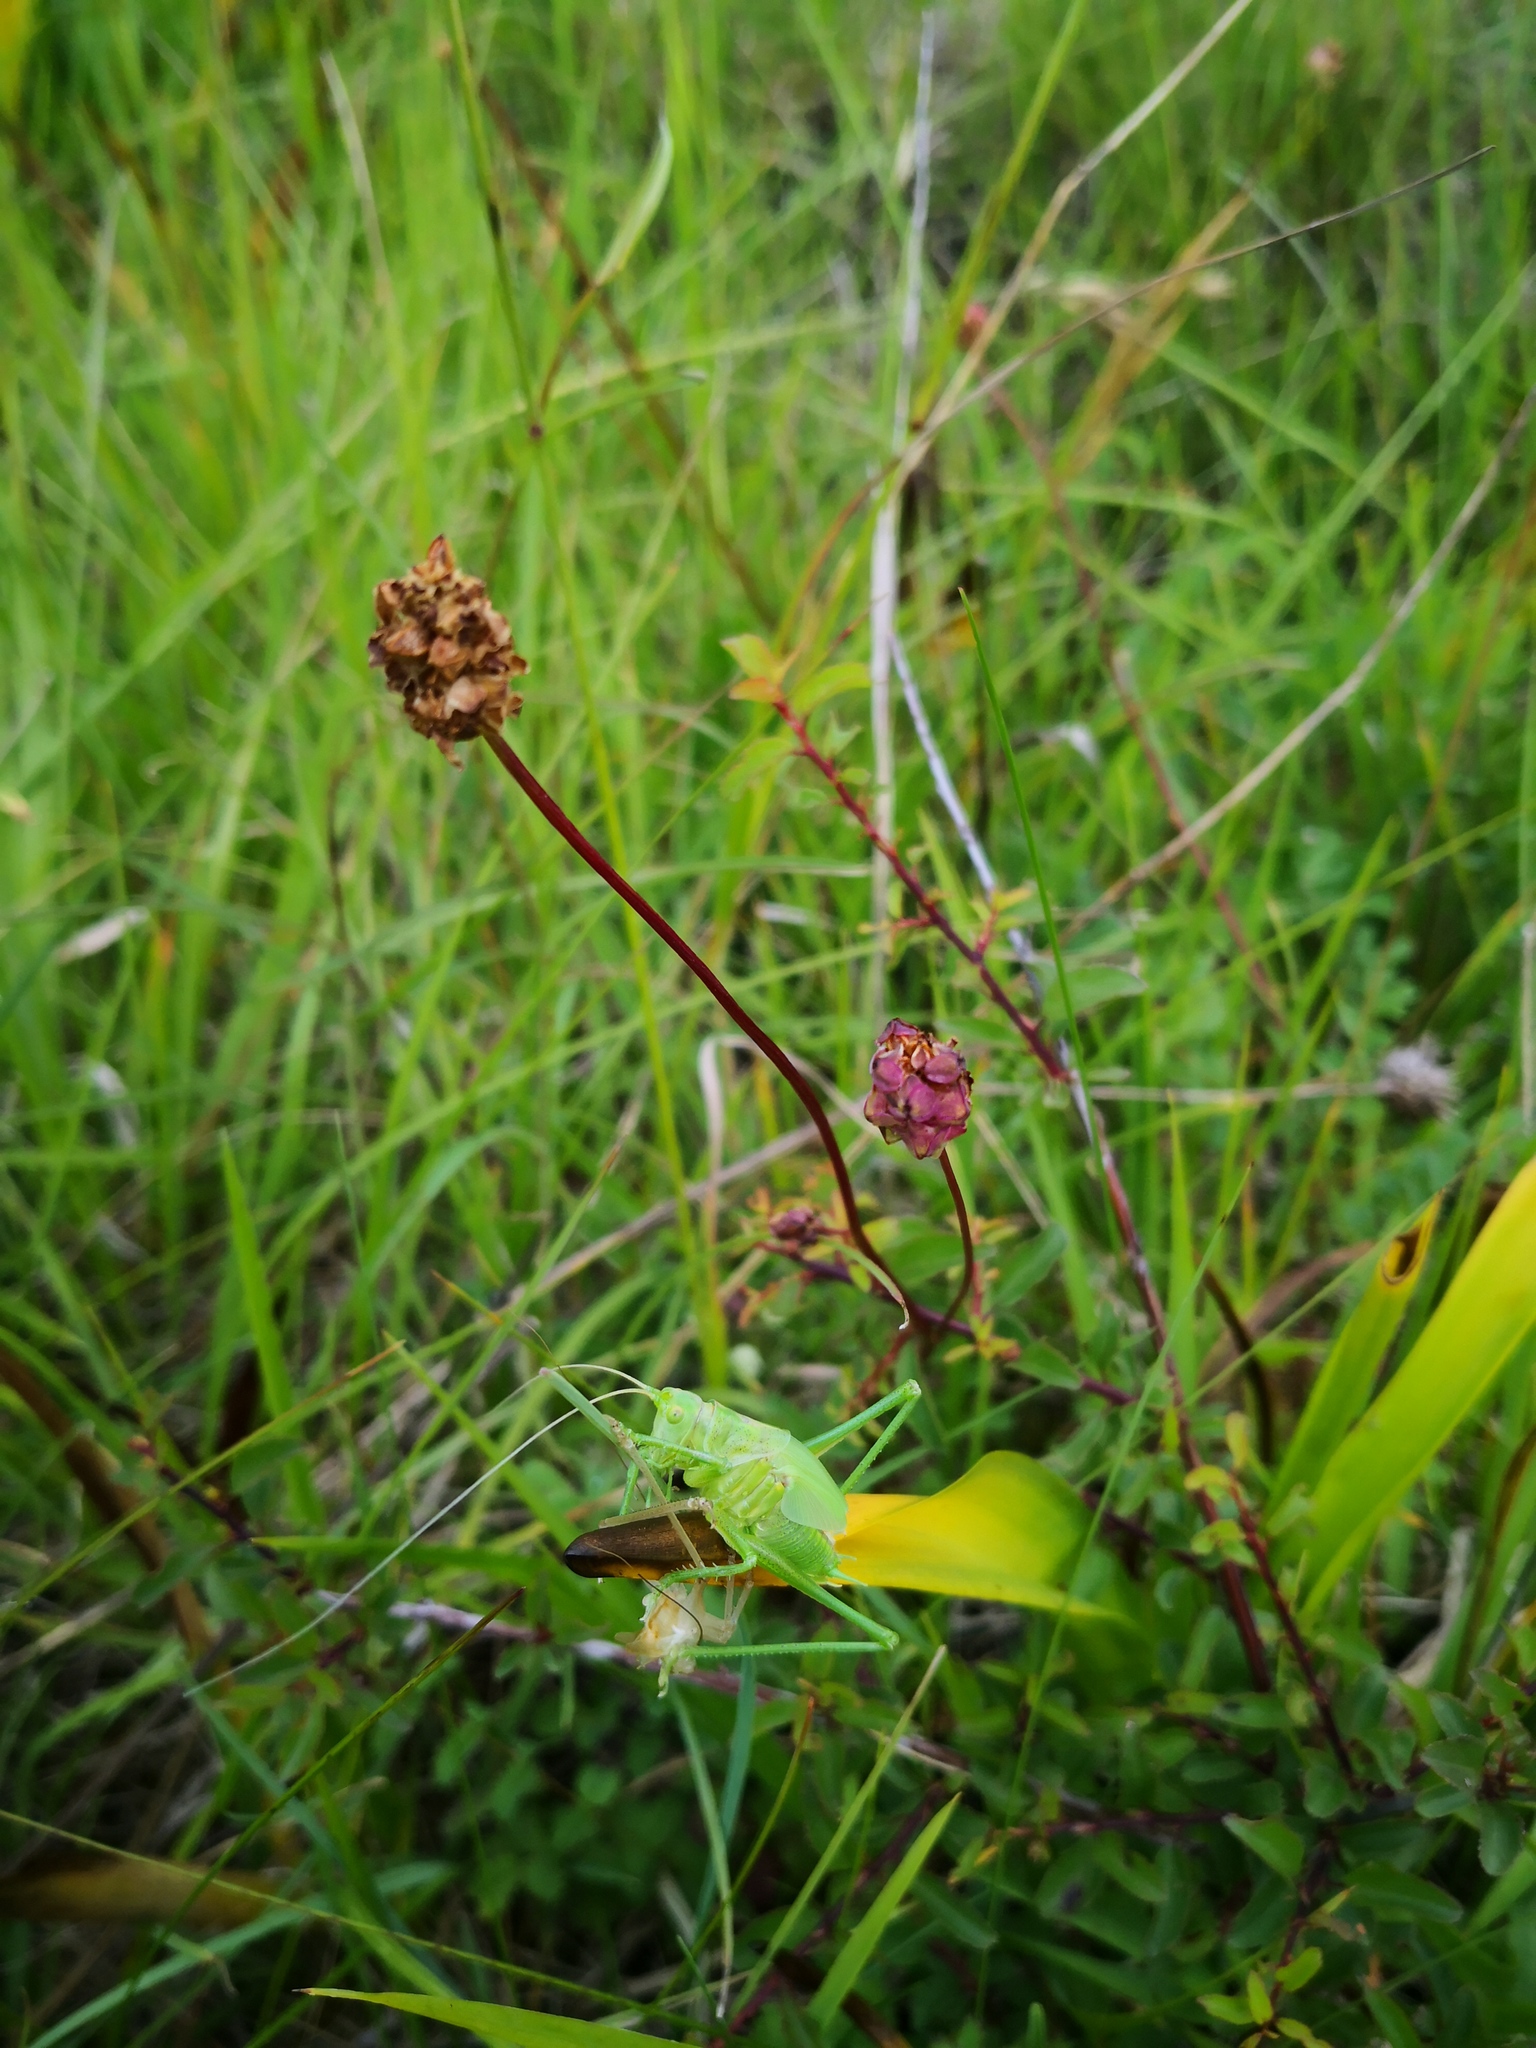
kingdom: Animalia
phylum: Arthropoda
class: Insecta
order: Orthoptera
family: Tettigoniidae
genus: Tettigonia
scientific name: Tettigonia viridissima
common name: Great green bush-cricket
